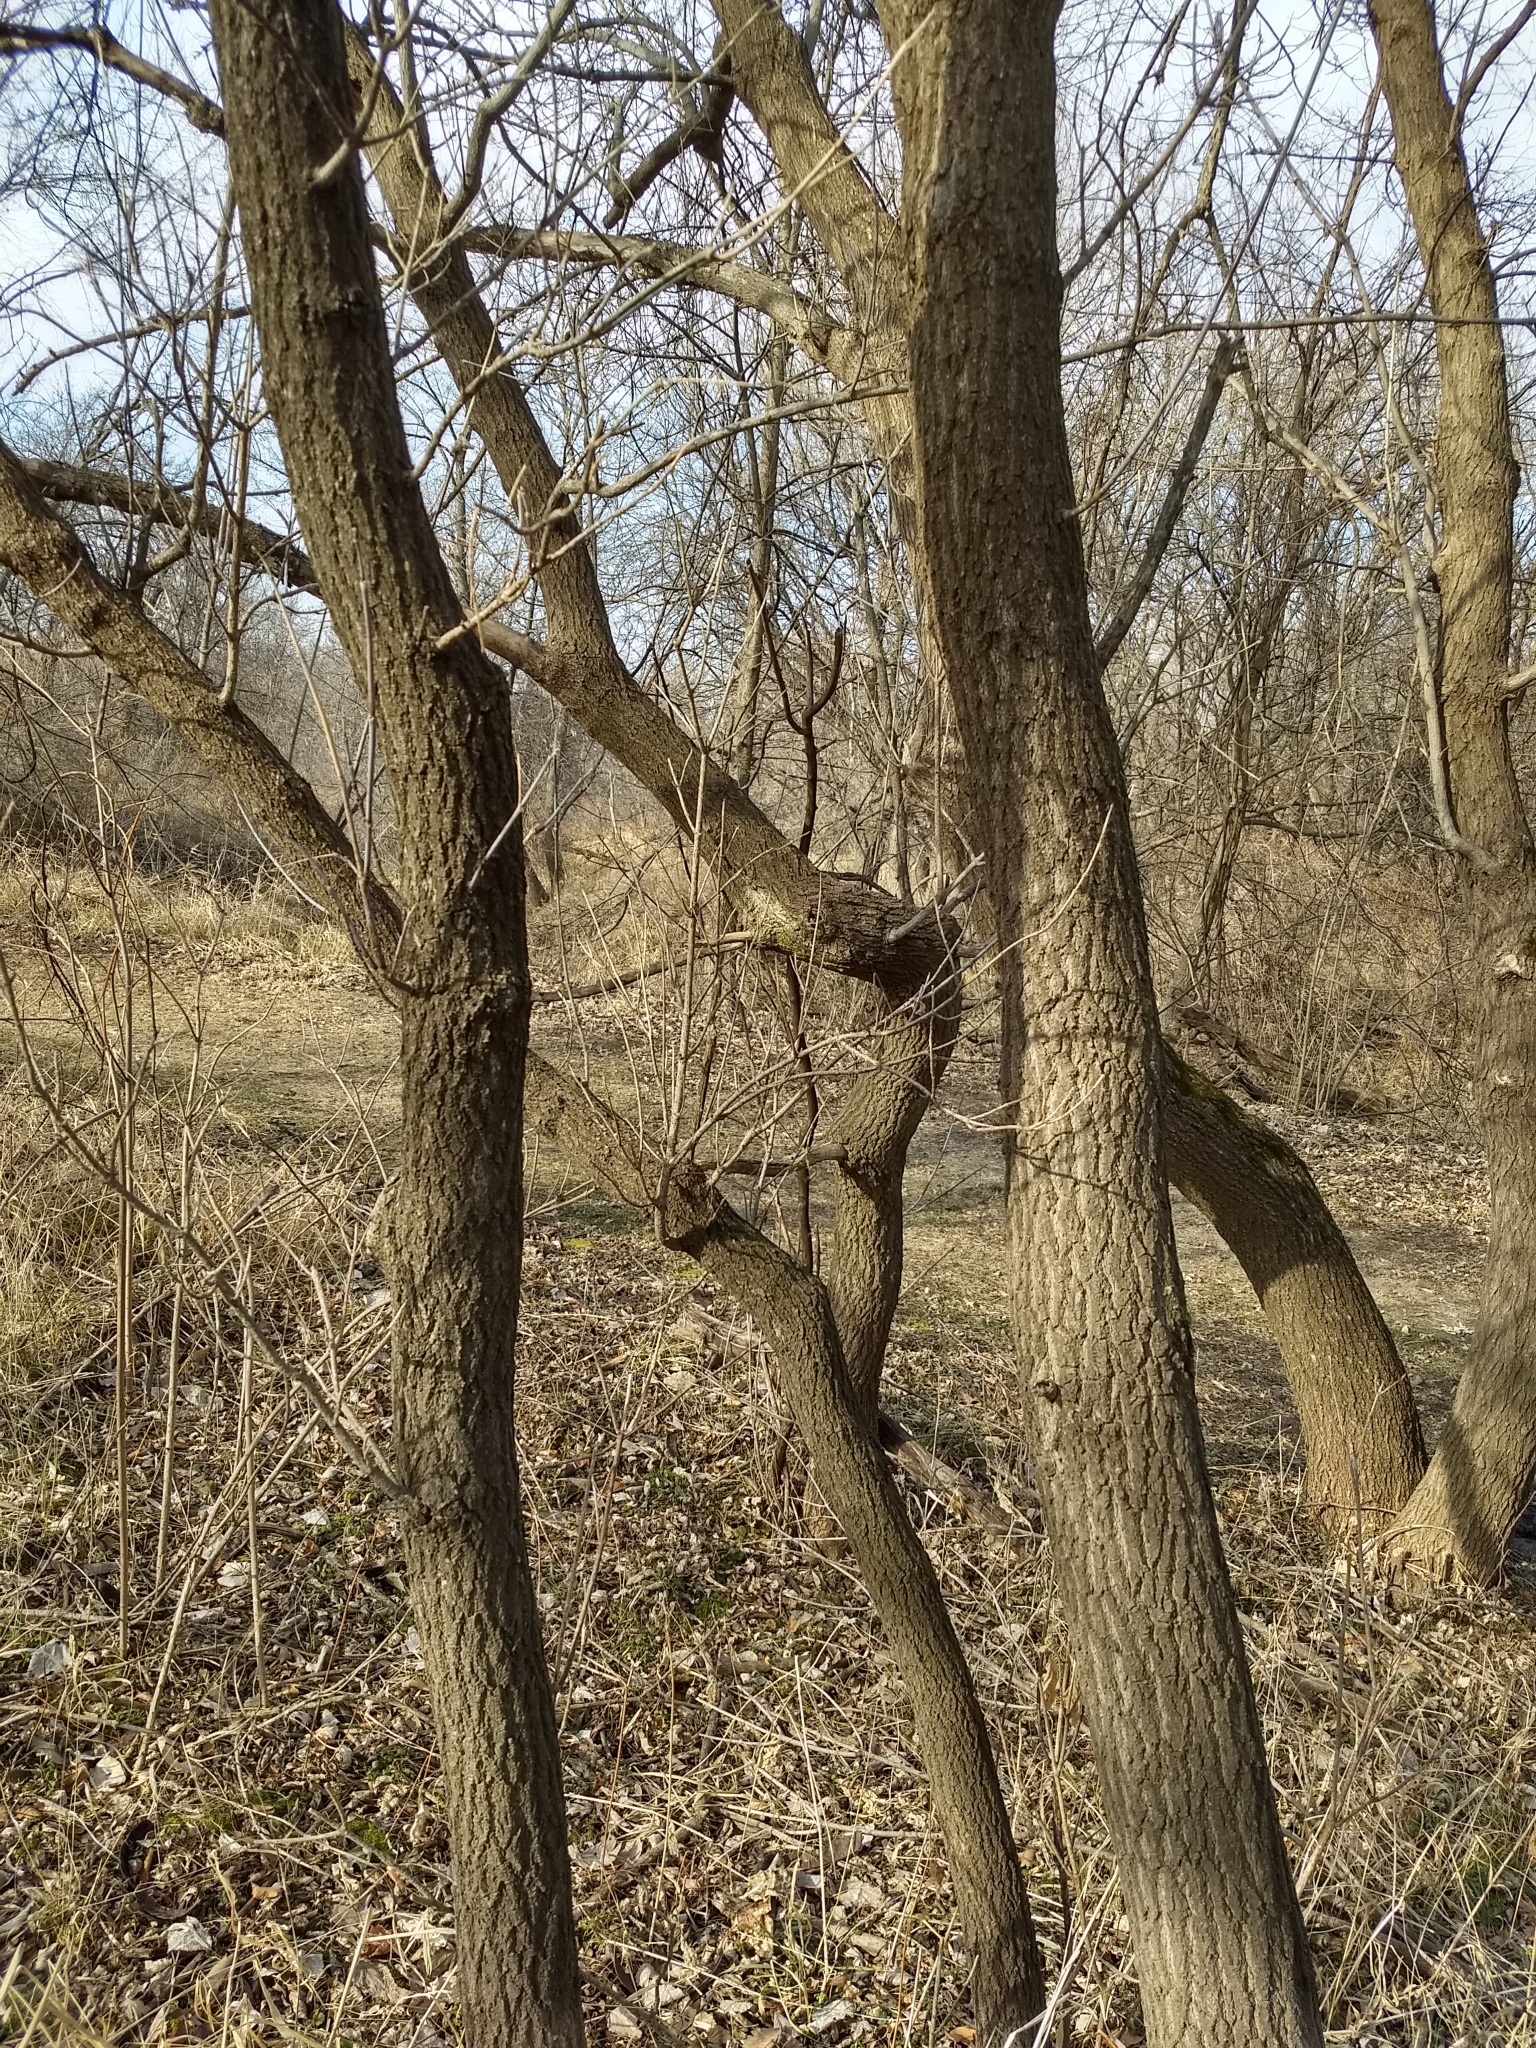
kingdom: Plantae
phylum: Tracheophyta
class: Magnoliopsida
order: Fabales
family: Fabaceae
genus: Gleditsia
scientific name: Gleditsia triacanthos
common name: Common honeylocust
